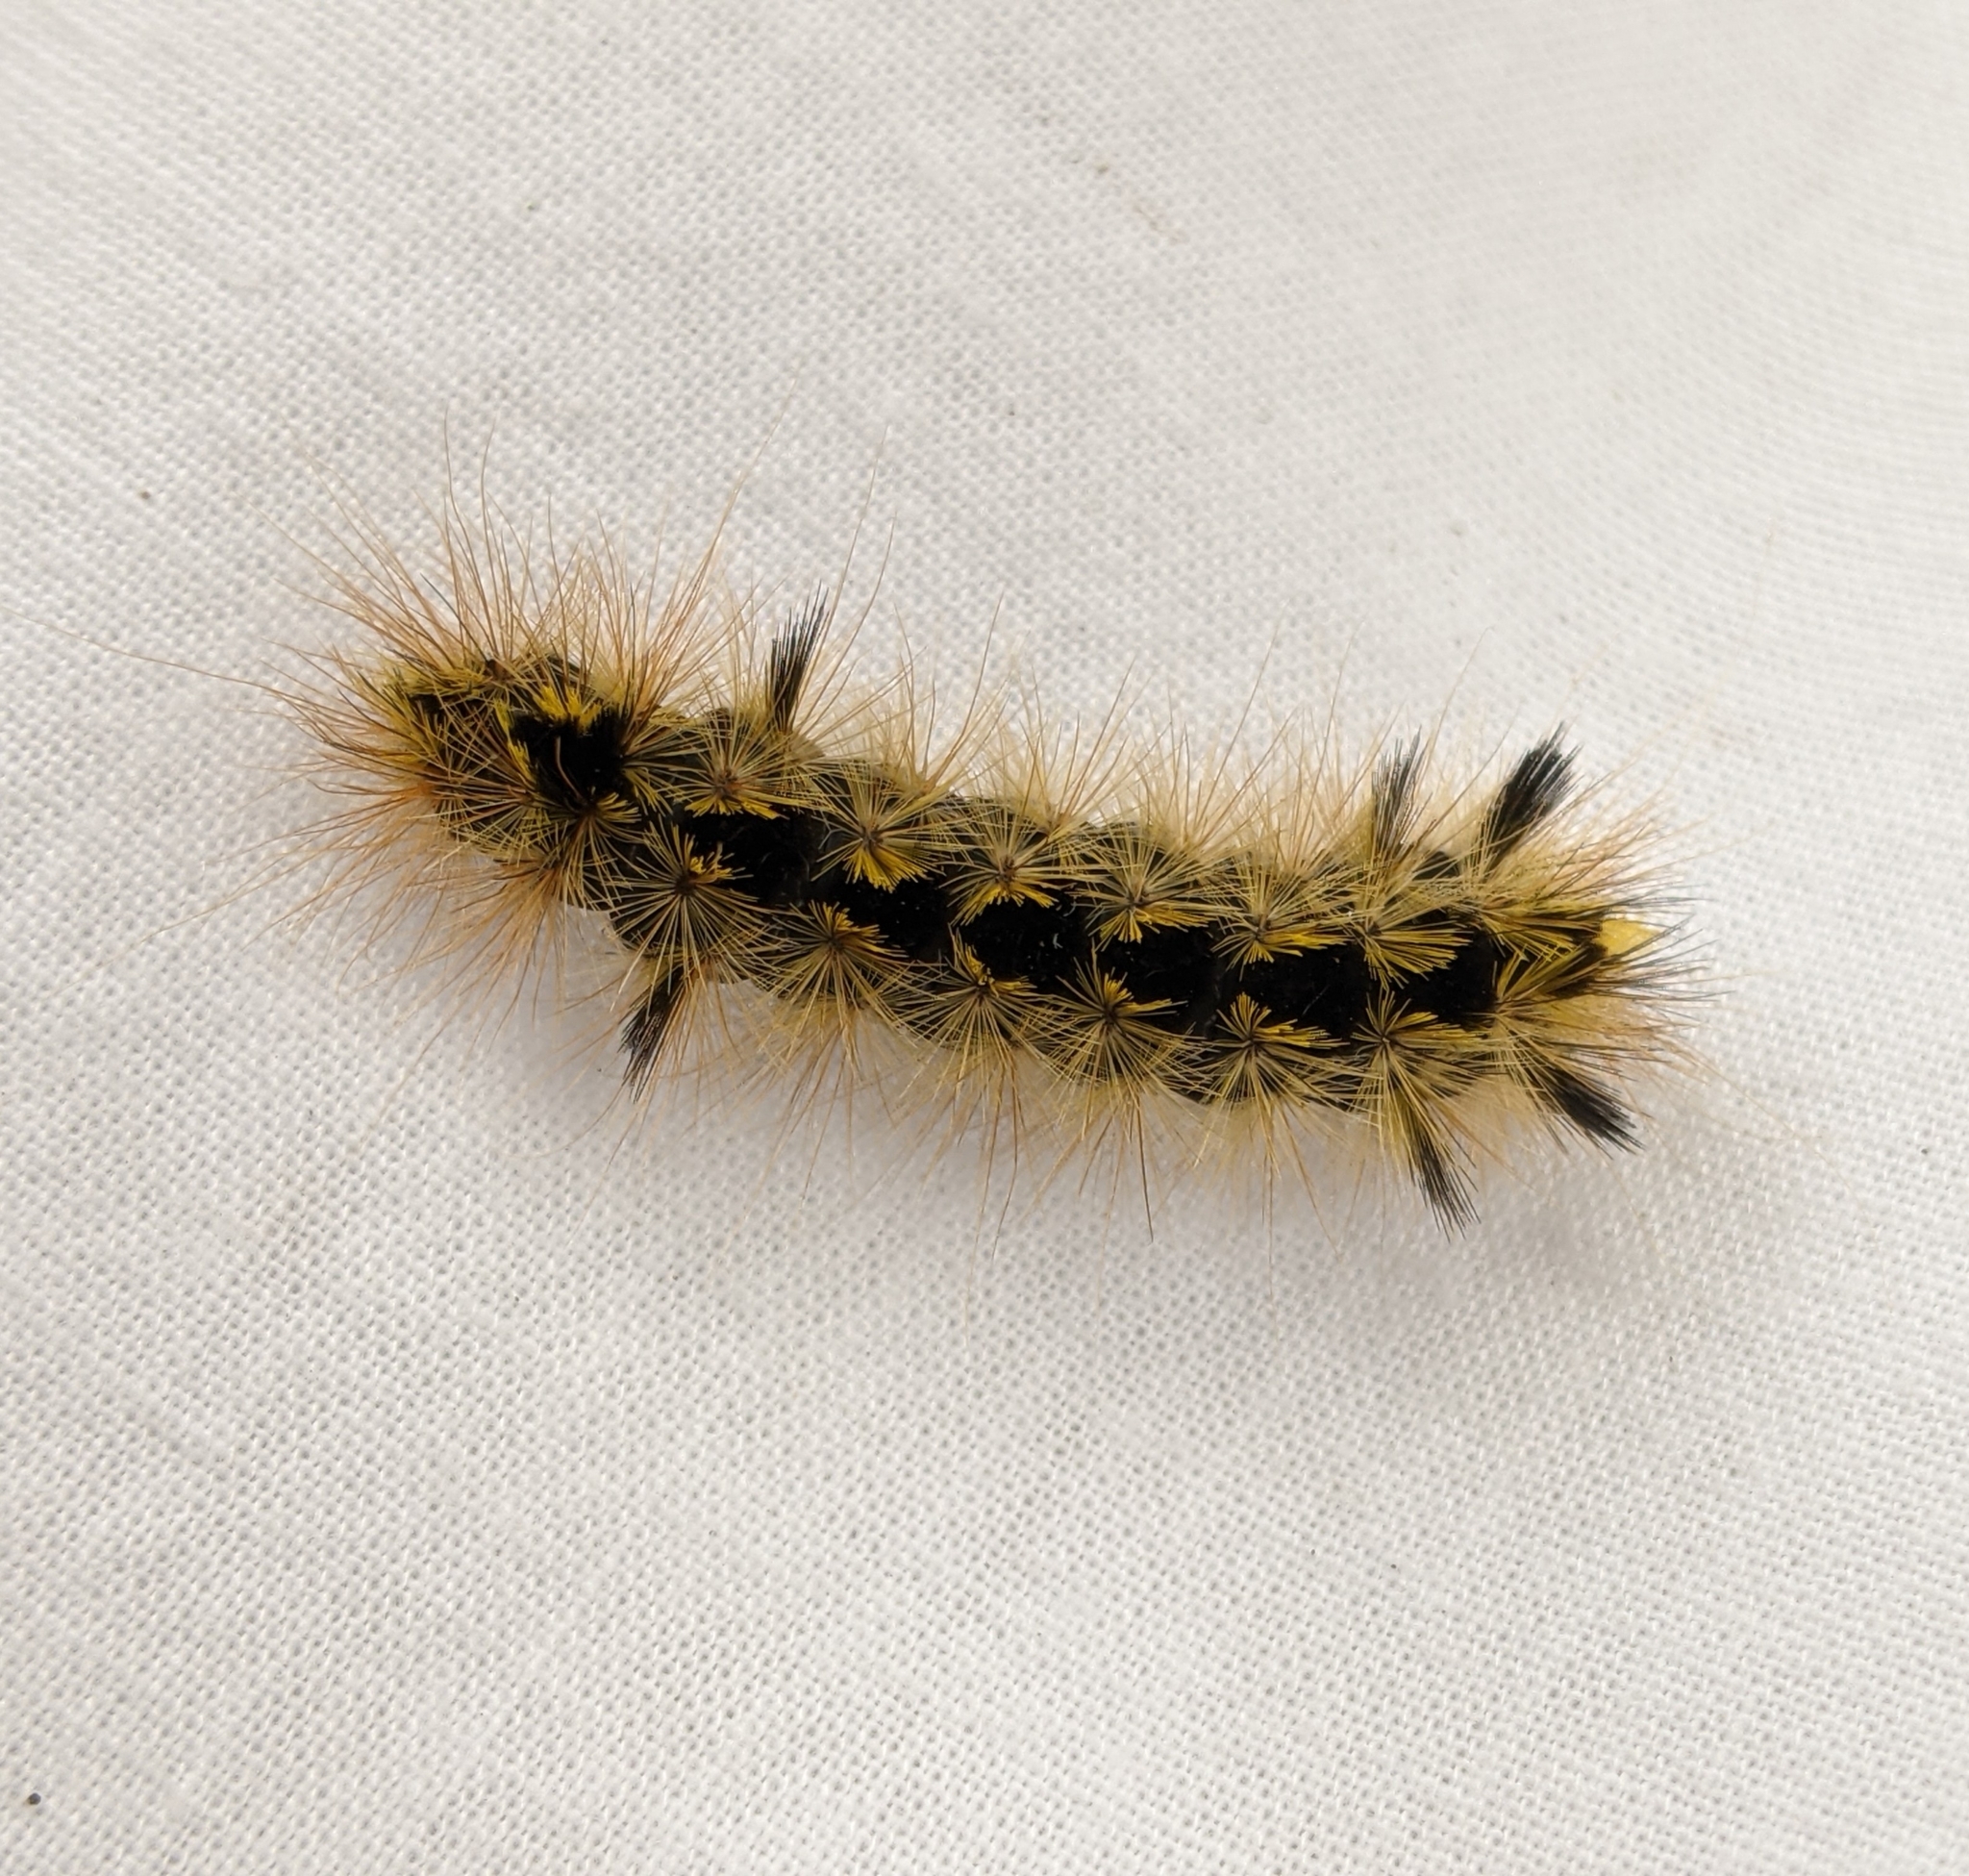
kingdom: Animalia
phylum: Arthropoda
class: Insecta
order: Lepidoptera
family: Erebidae
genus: Lophocampa
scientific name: Lophocampa argentata
